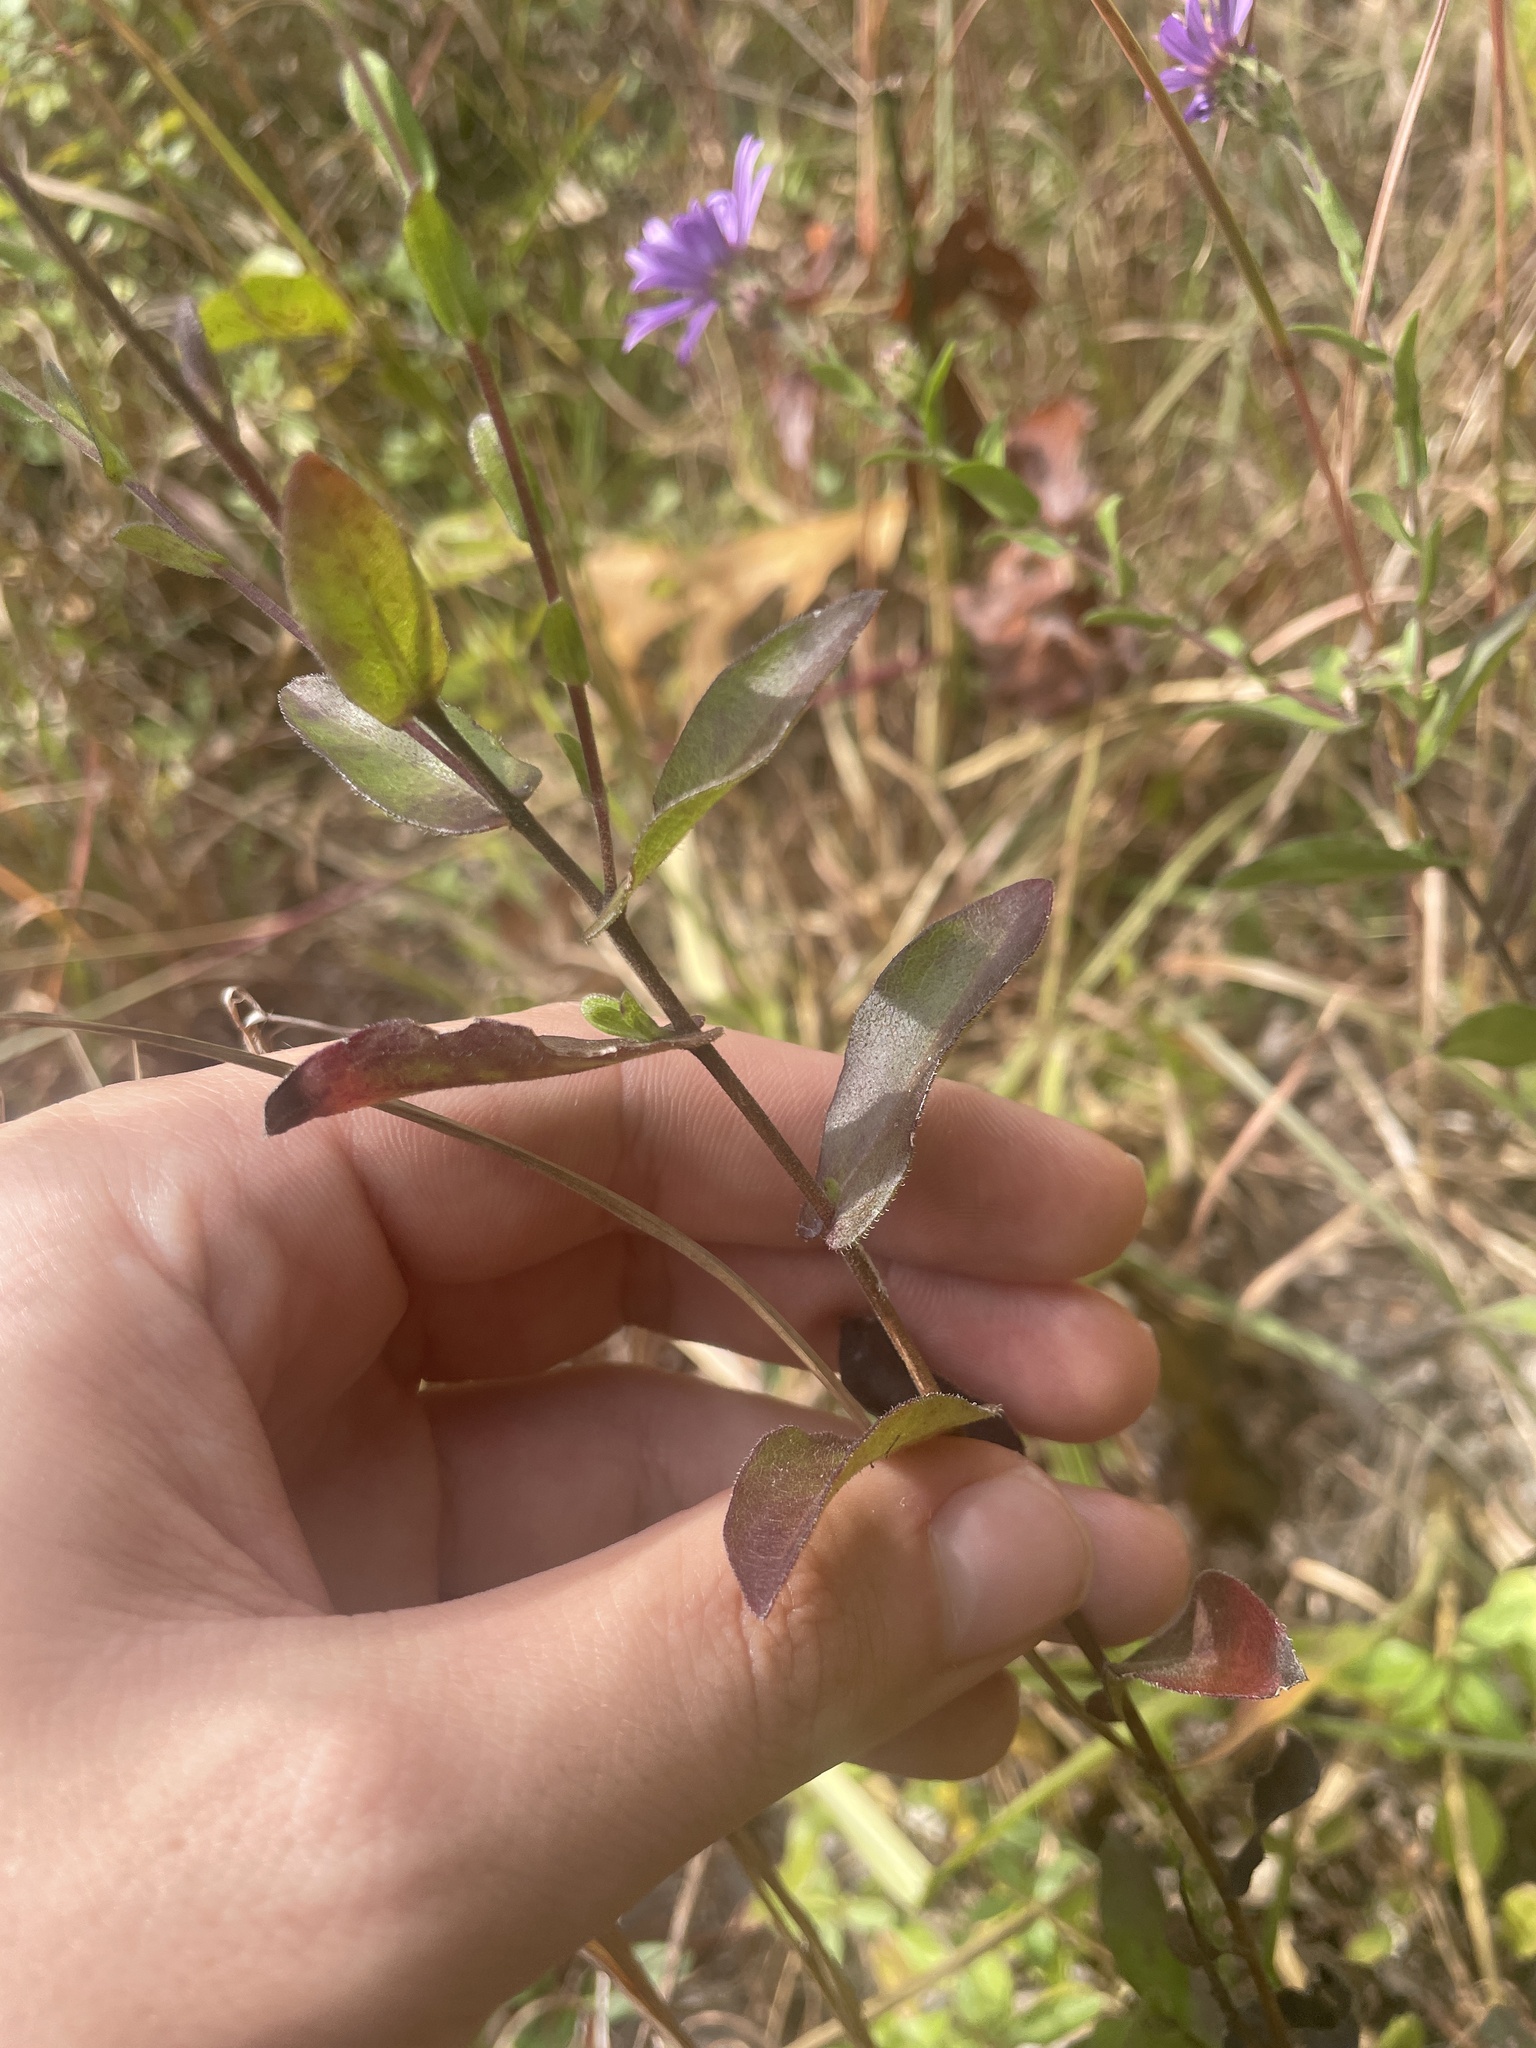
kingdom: Plantae
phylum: Tracheophyta
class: Magnoliopsida
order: Asterales
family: Asteraceae
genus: Symphyotrichum
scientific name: Symphyotrichum georgianum
